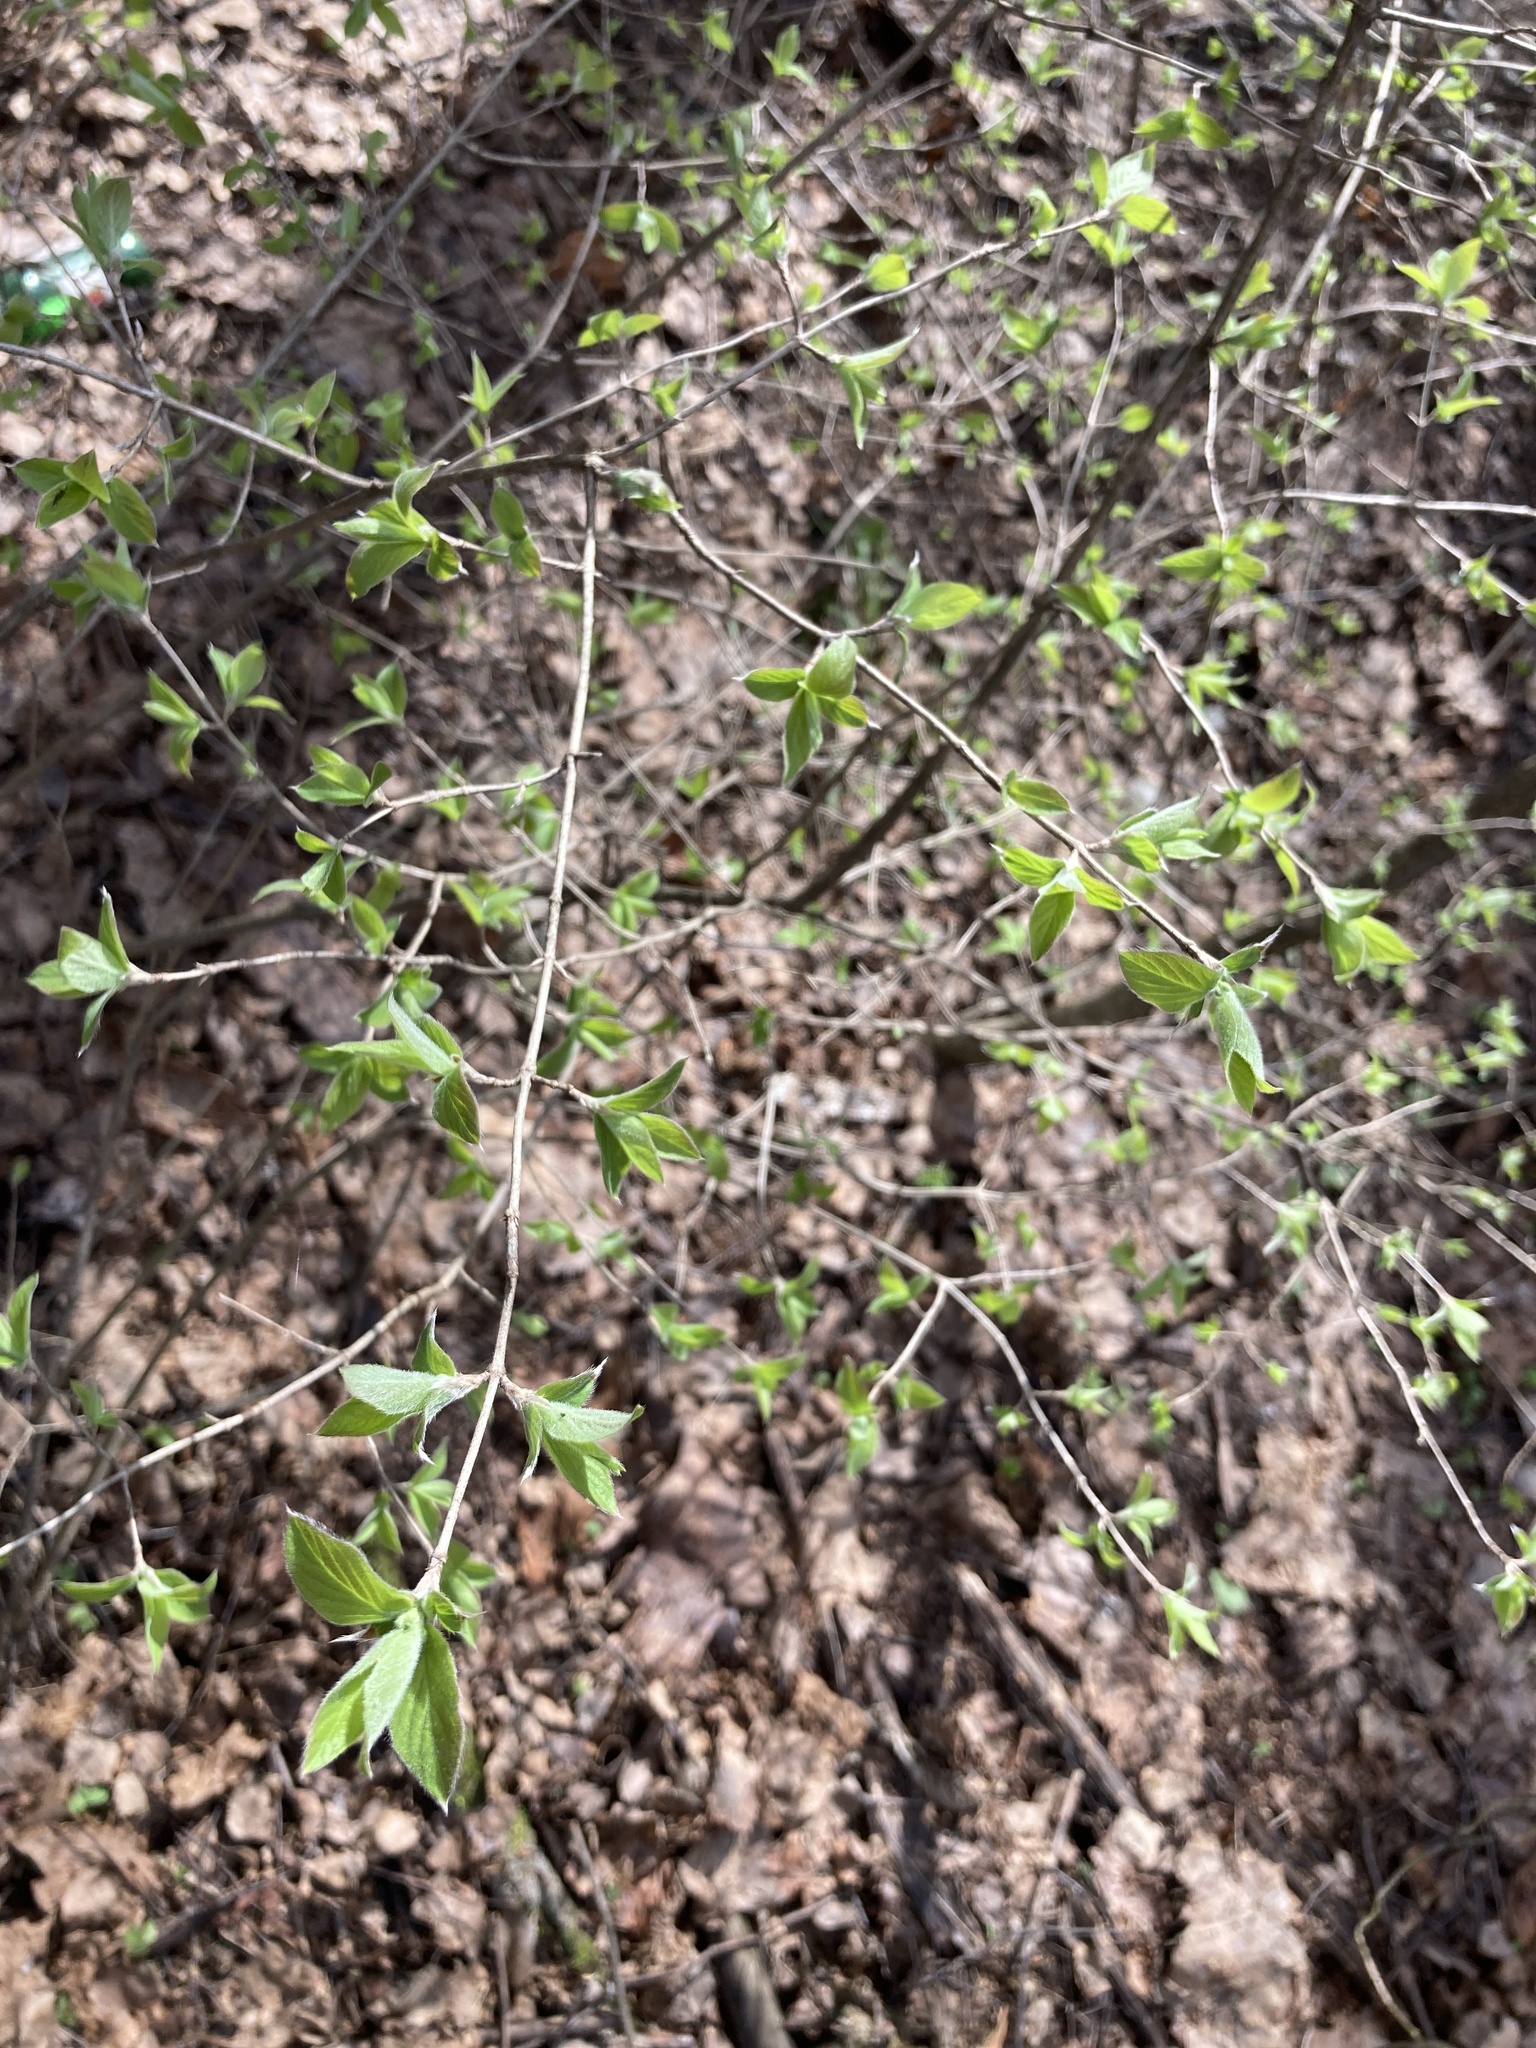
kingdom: Plantae
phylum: Tracheophyta
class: Magnoliopsida
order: Dipsacales
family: Caprifoliaceae
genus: Lonicera
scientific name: Lonicera xylosteum
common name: Fly honeysuckle
